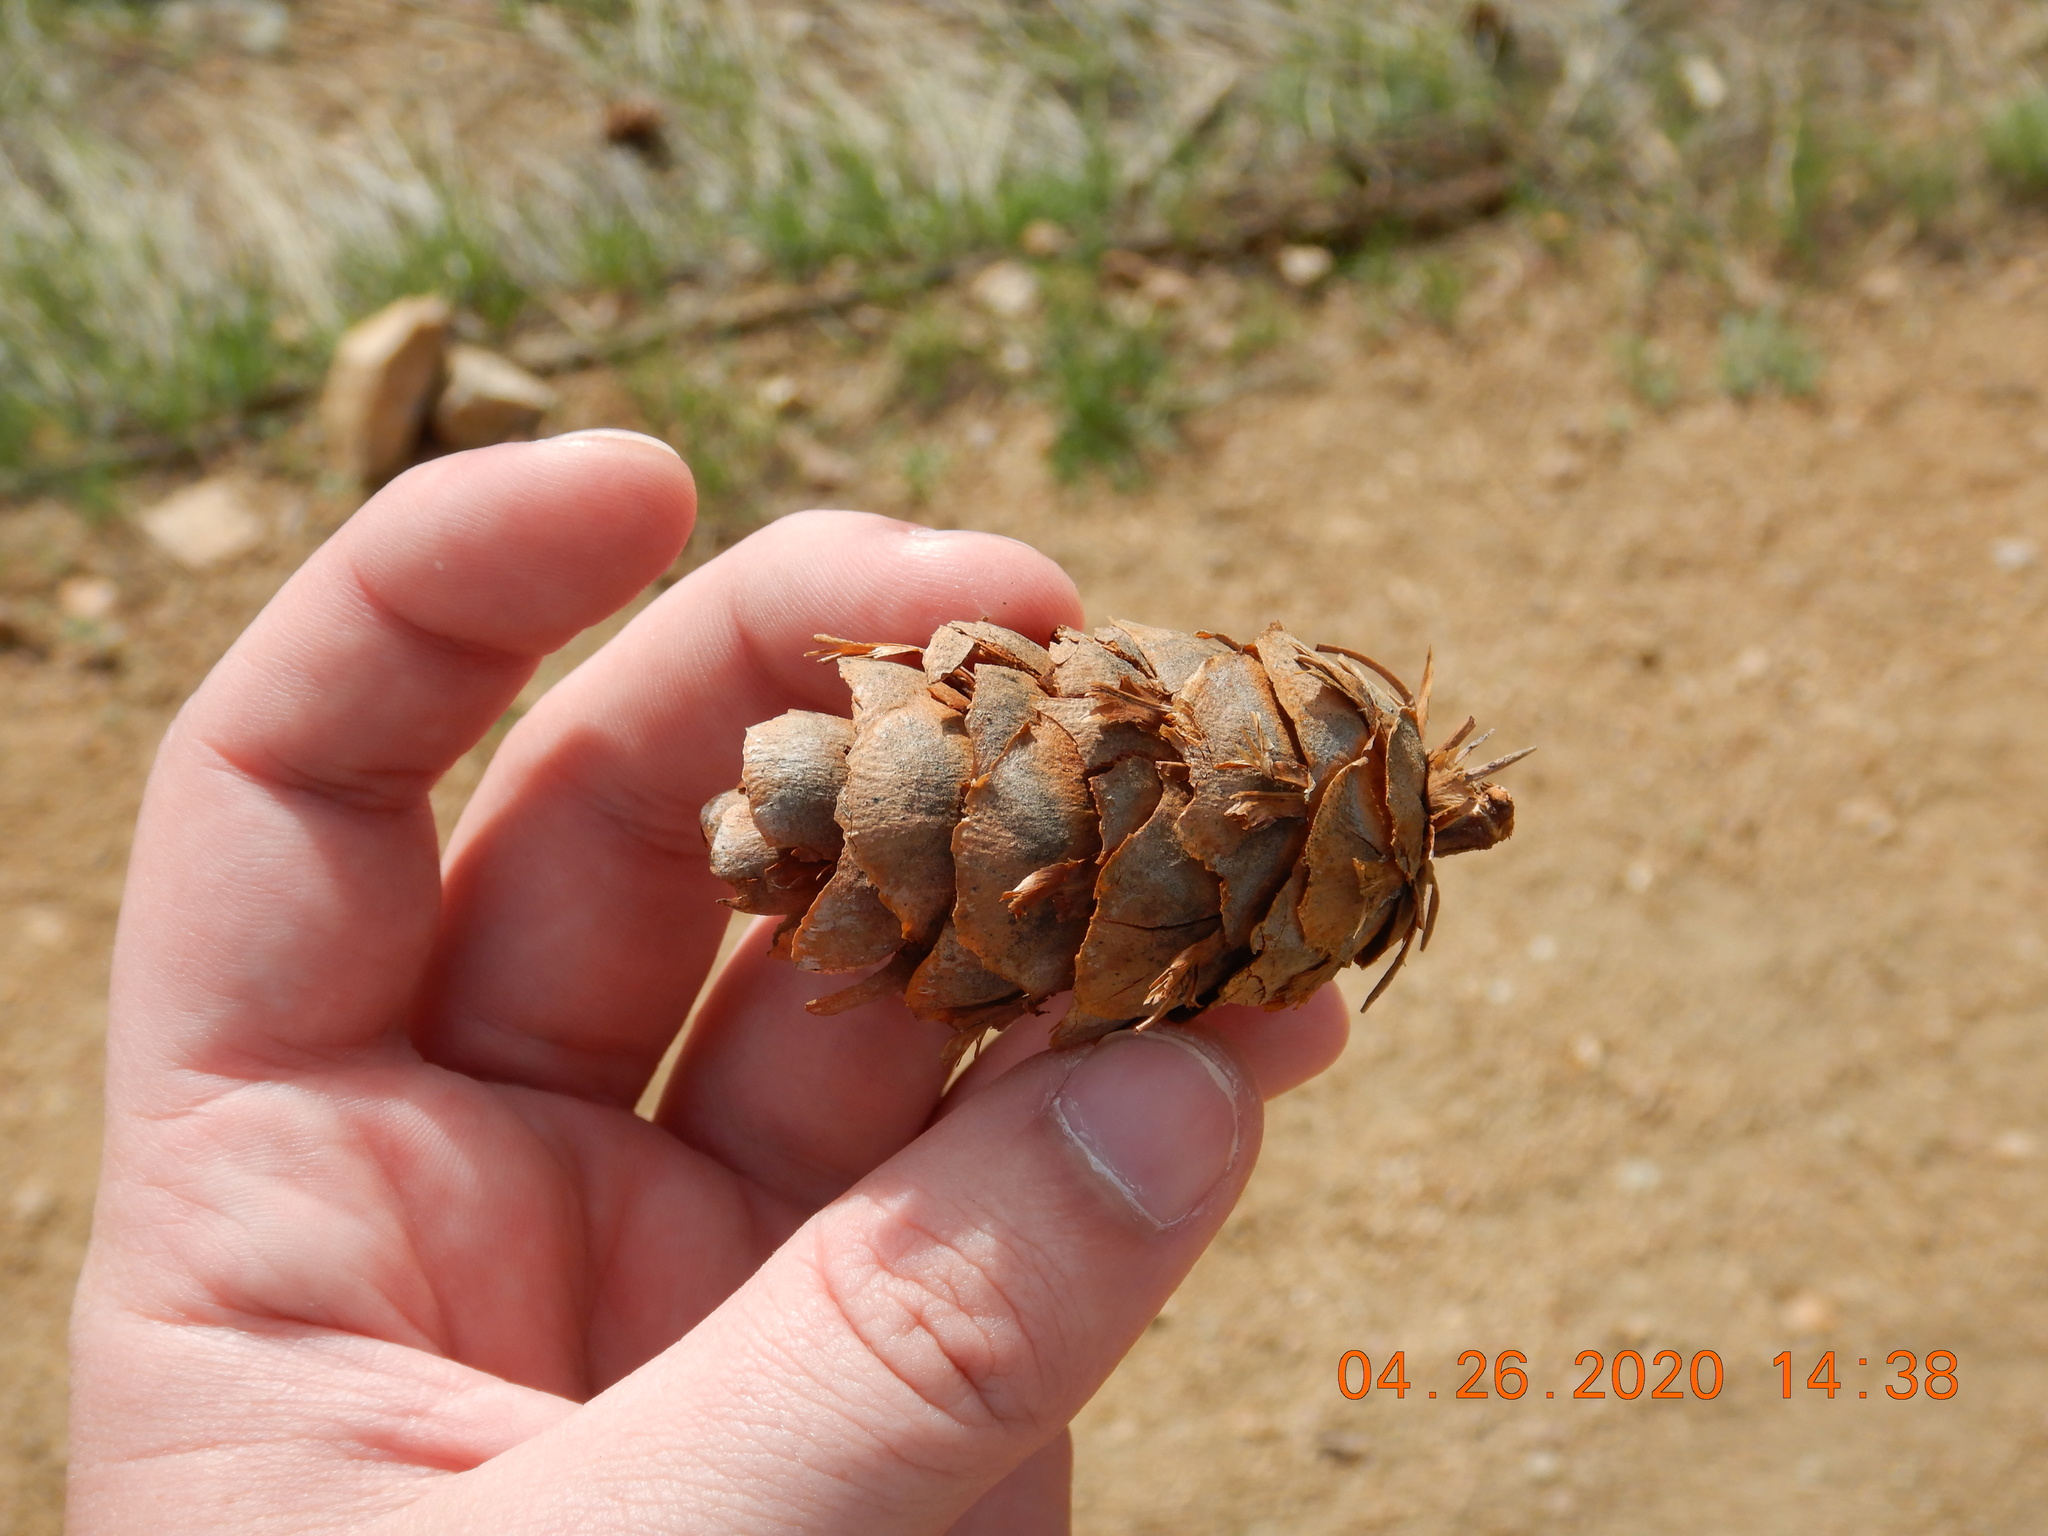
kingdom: Plantae
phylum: Tracheophyta
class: Pinopsida
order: Pinales
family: Pinaceae
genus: Pseudotsuga
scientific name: Pseudotsuga menziesii
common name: Douglas fir
